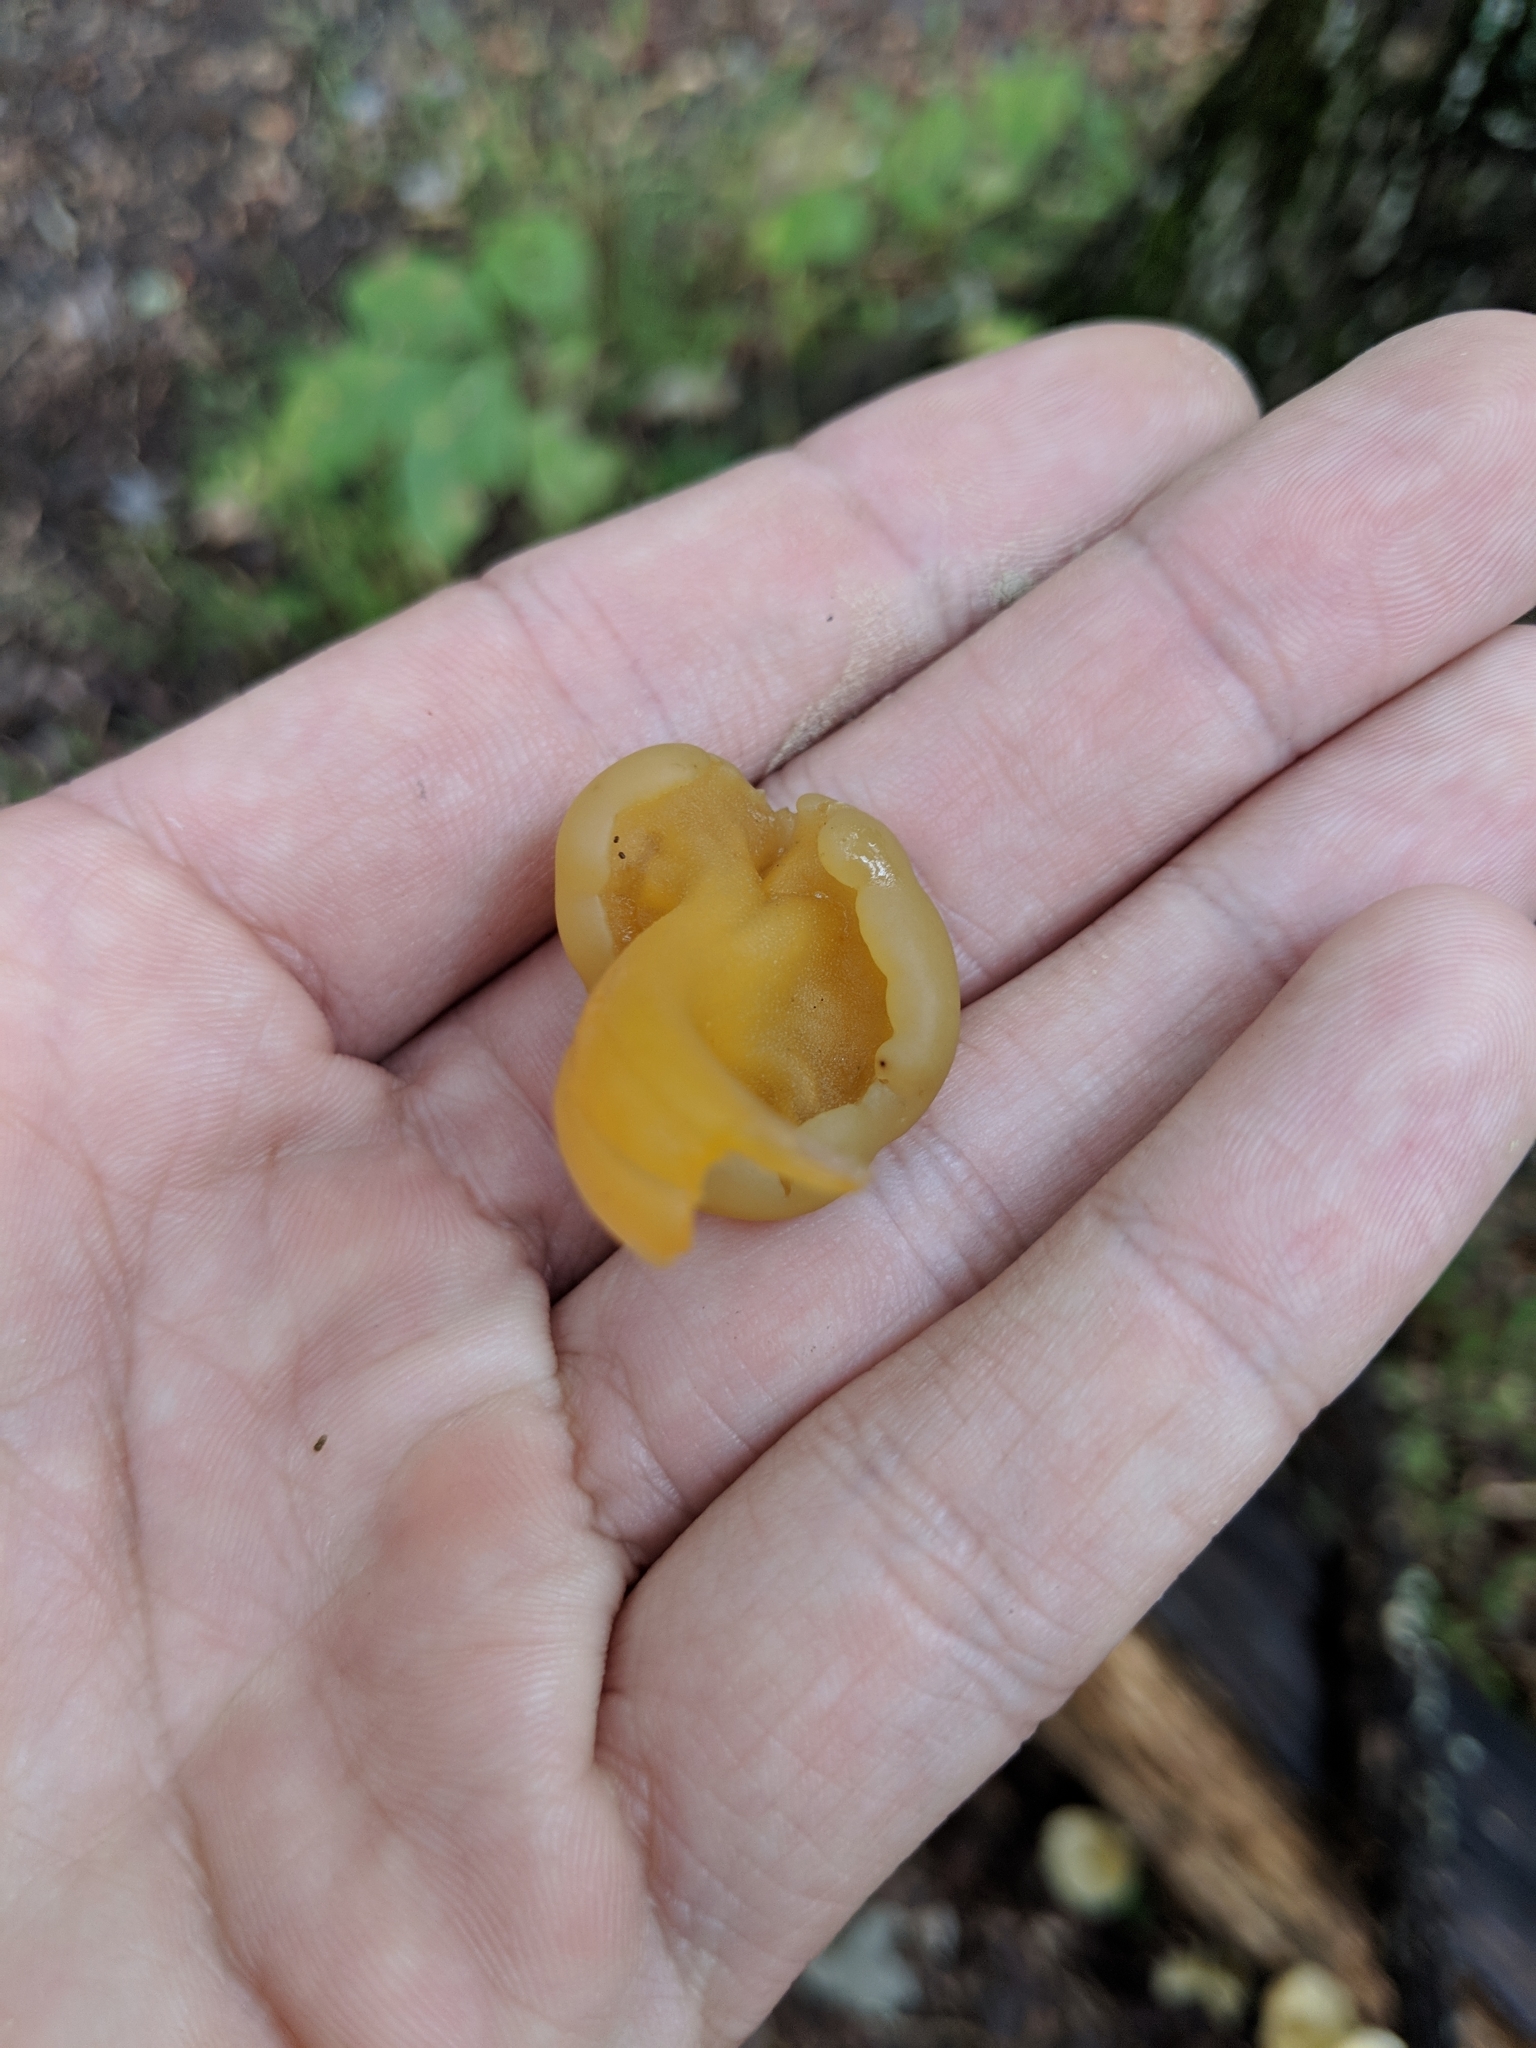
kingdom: Fungi
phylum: Ascomycota
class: Leotiomycetes
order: Leotiales
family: Leotiaceae
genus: Leotia
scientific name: Leotia lubrica
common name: Jellybaby
